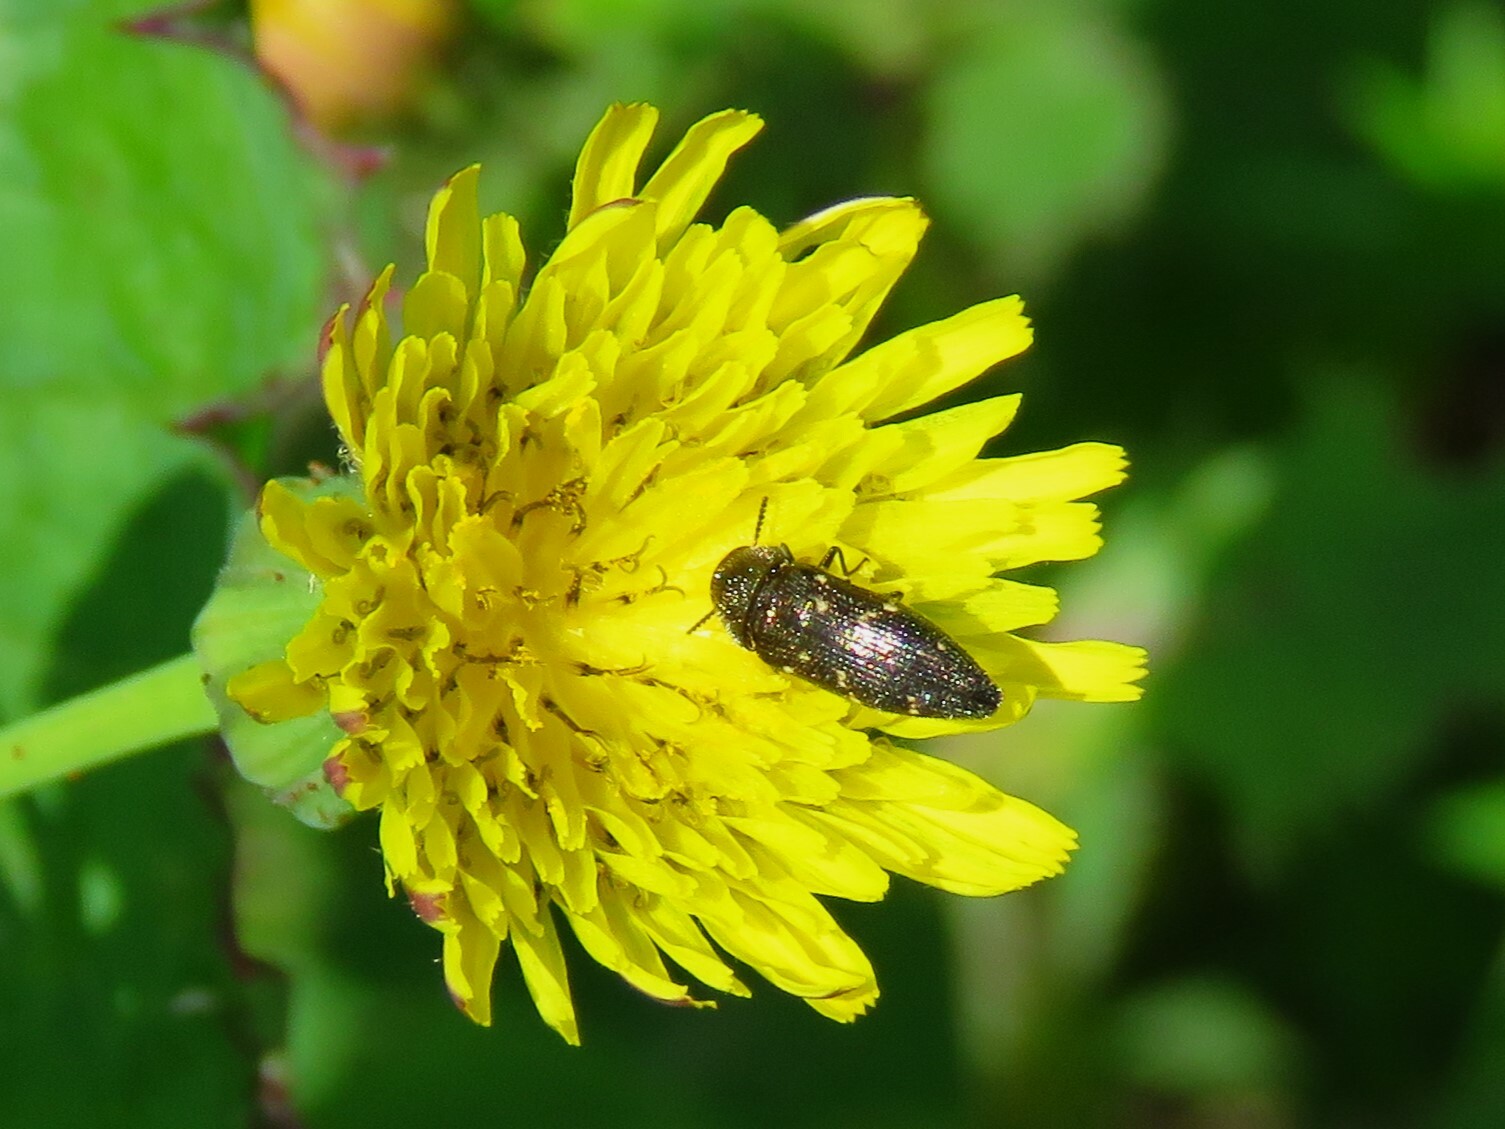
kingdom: Animalia
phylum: Arthropoda
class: Insecta
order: Coleoptera
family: Buprestidae
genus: Acmaeodera
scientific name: Acmaeodera tubulus
